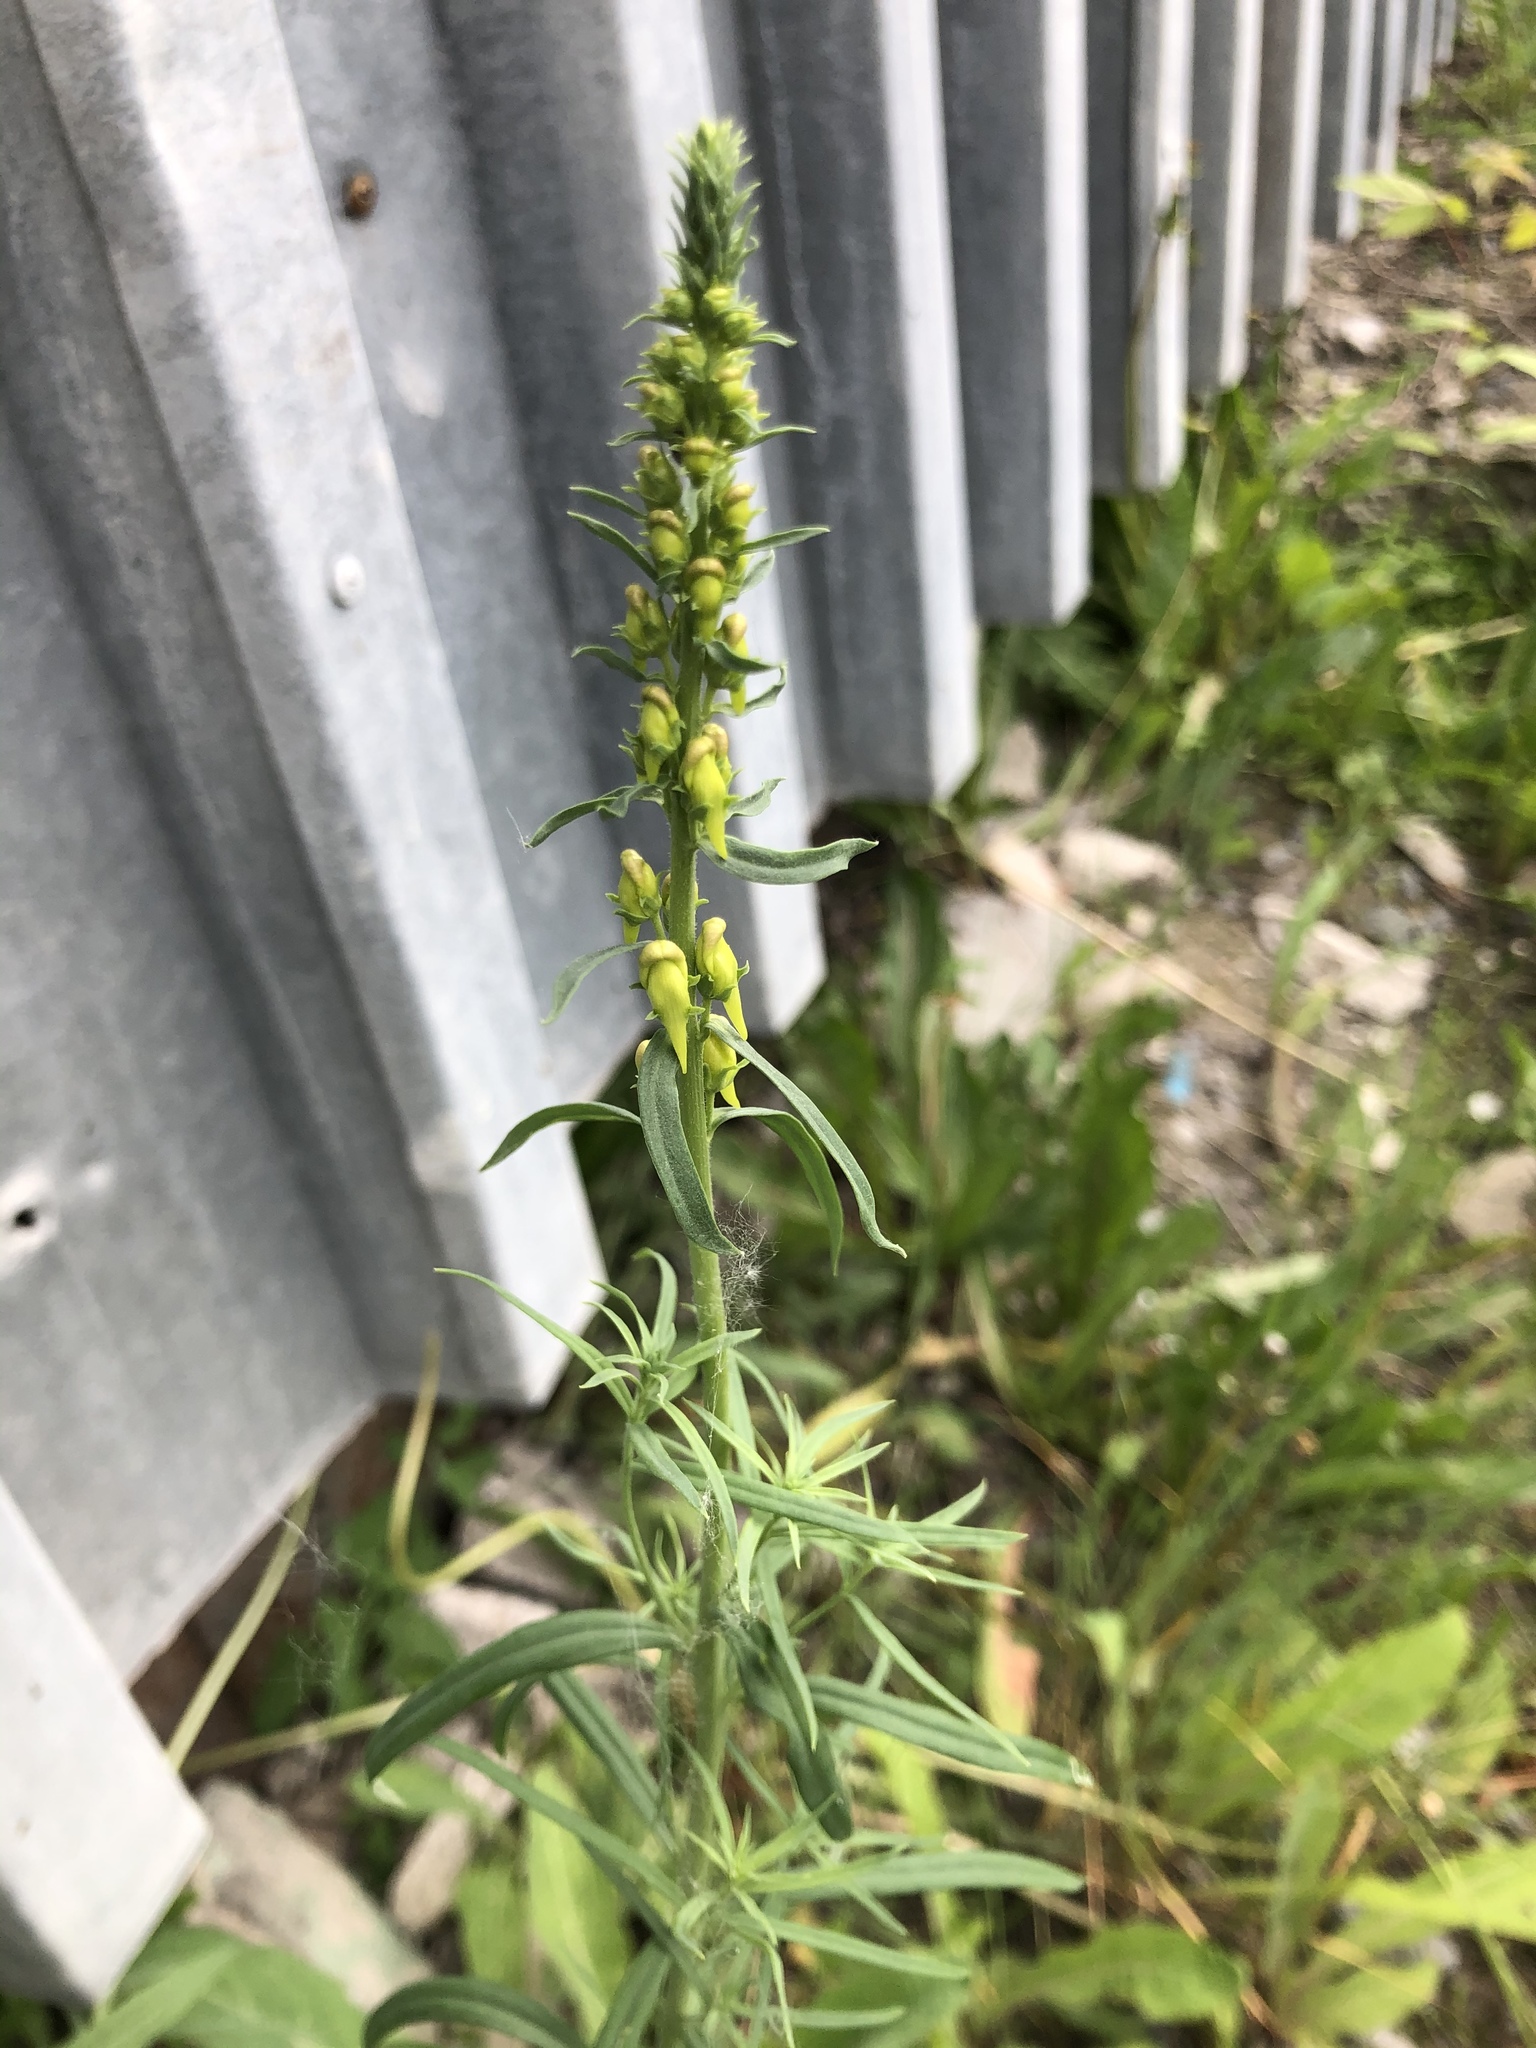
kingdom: Plantae
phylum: Tracheophyta
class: Magnoliopsida
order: Lamiales
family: Plantaginaceae
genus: Linaria
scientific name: Linaria vulgaris
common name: Butter and eggs
